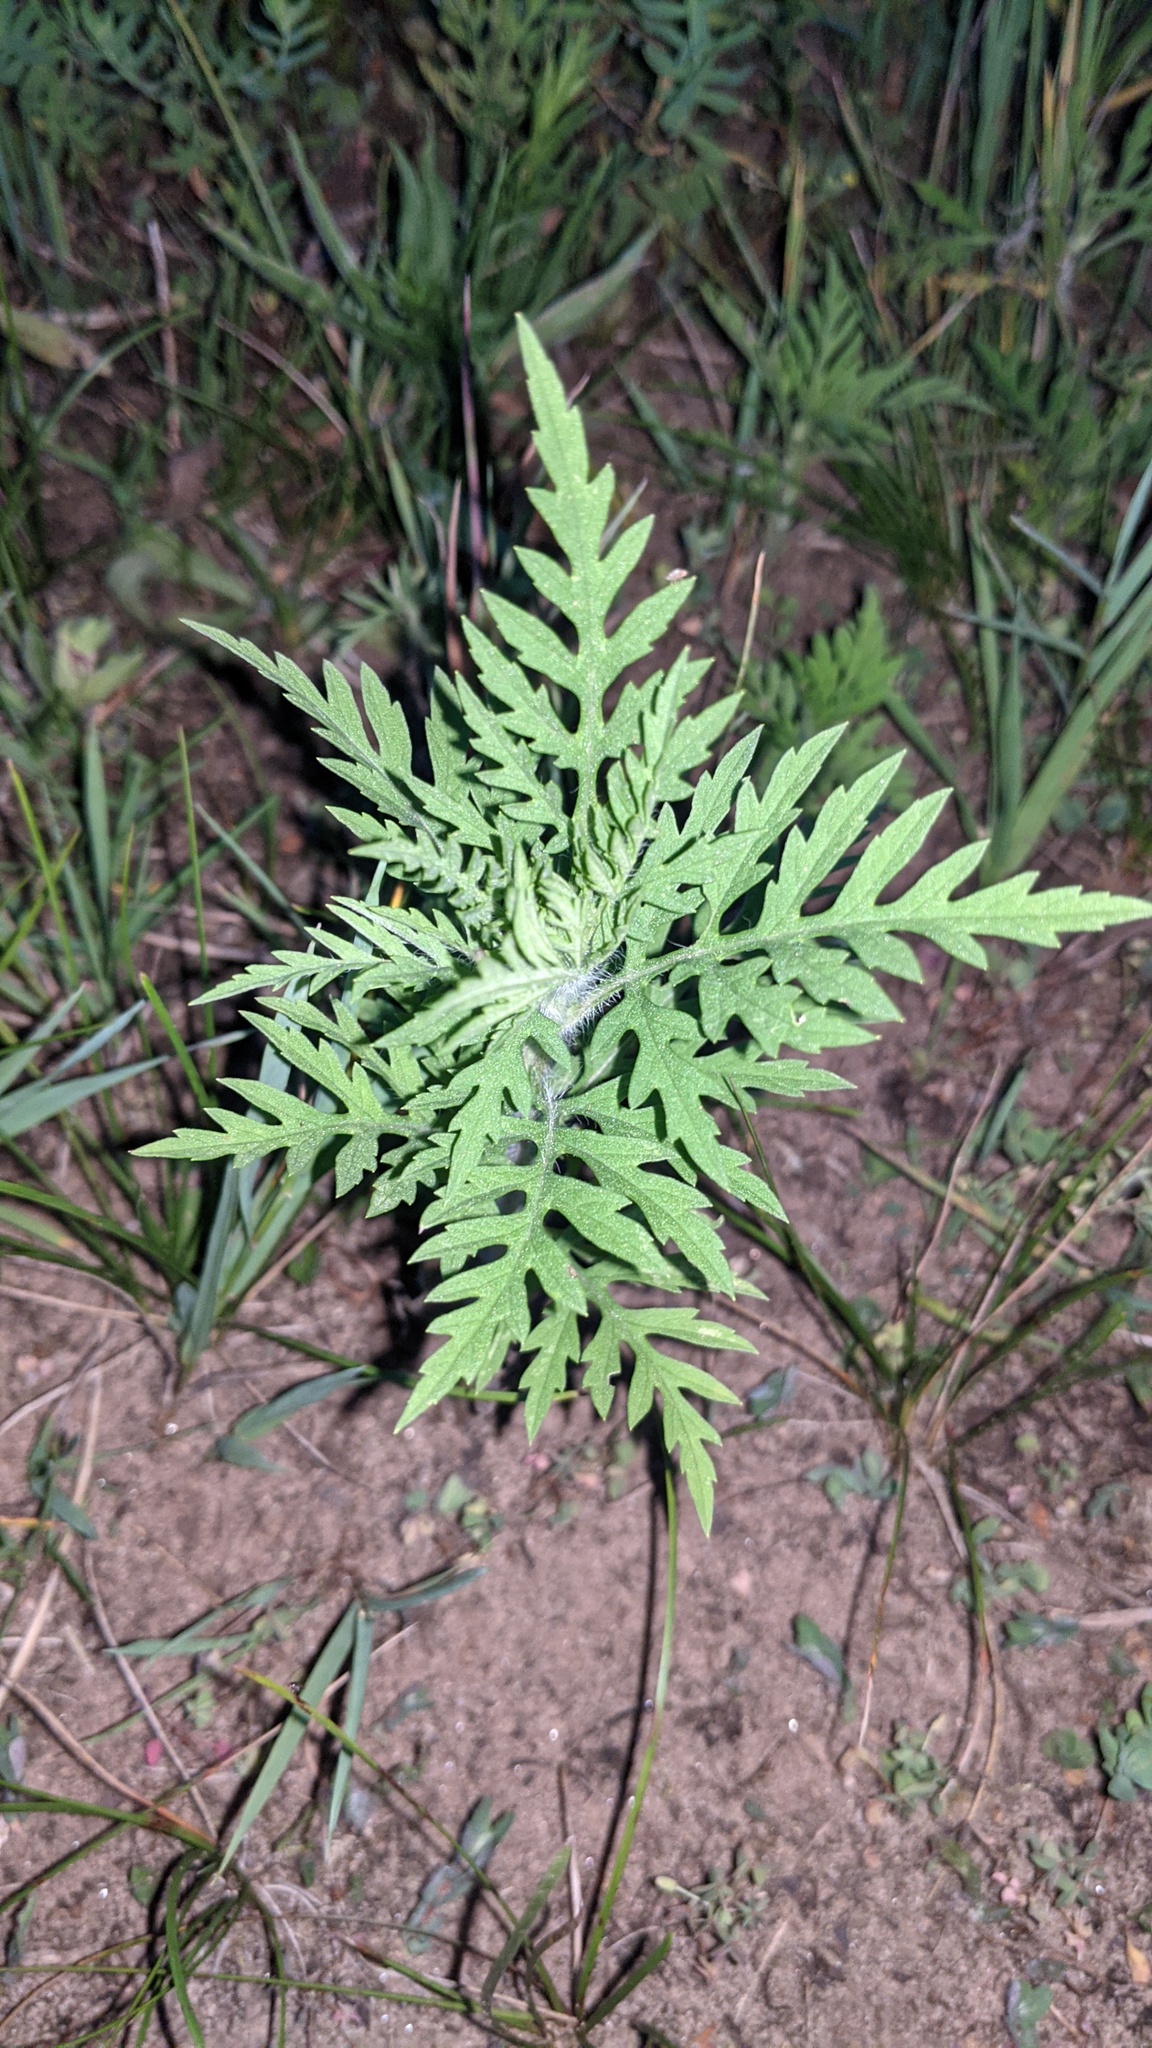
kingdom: Plantae
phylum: Tracheophyta
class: Magnoliopsida
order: Asterales
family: Asteraceae
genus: Ambrosia
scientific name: Ambrosia artemisiifolia
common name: Annual ragweed
